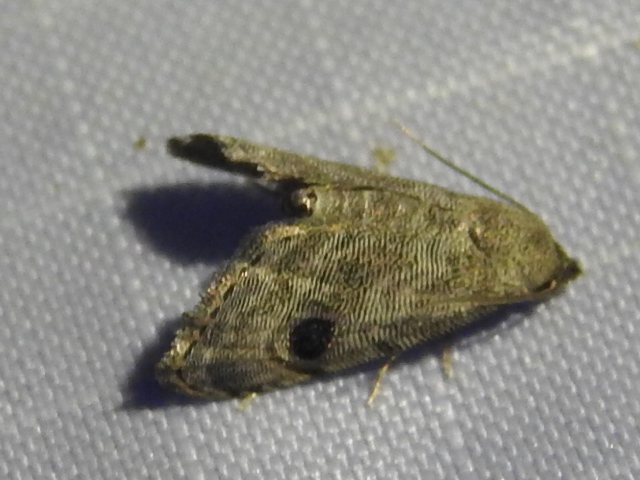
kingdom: Animalia
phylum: Arthropoda
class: Insecta
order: Lepidoptera
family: Noctuidae
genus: Abablemma
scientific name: Abablemma brimleyana
